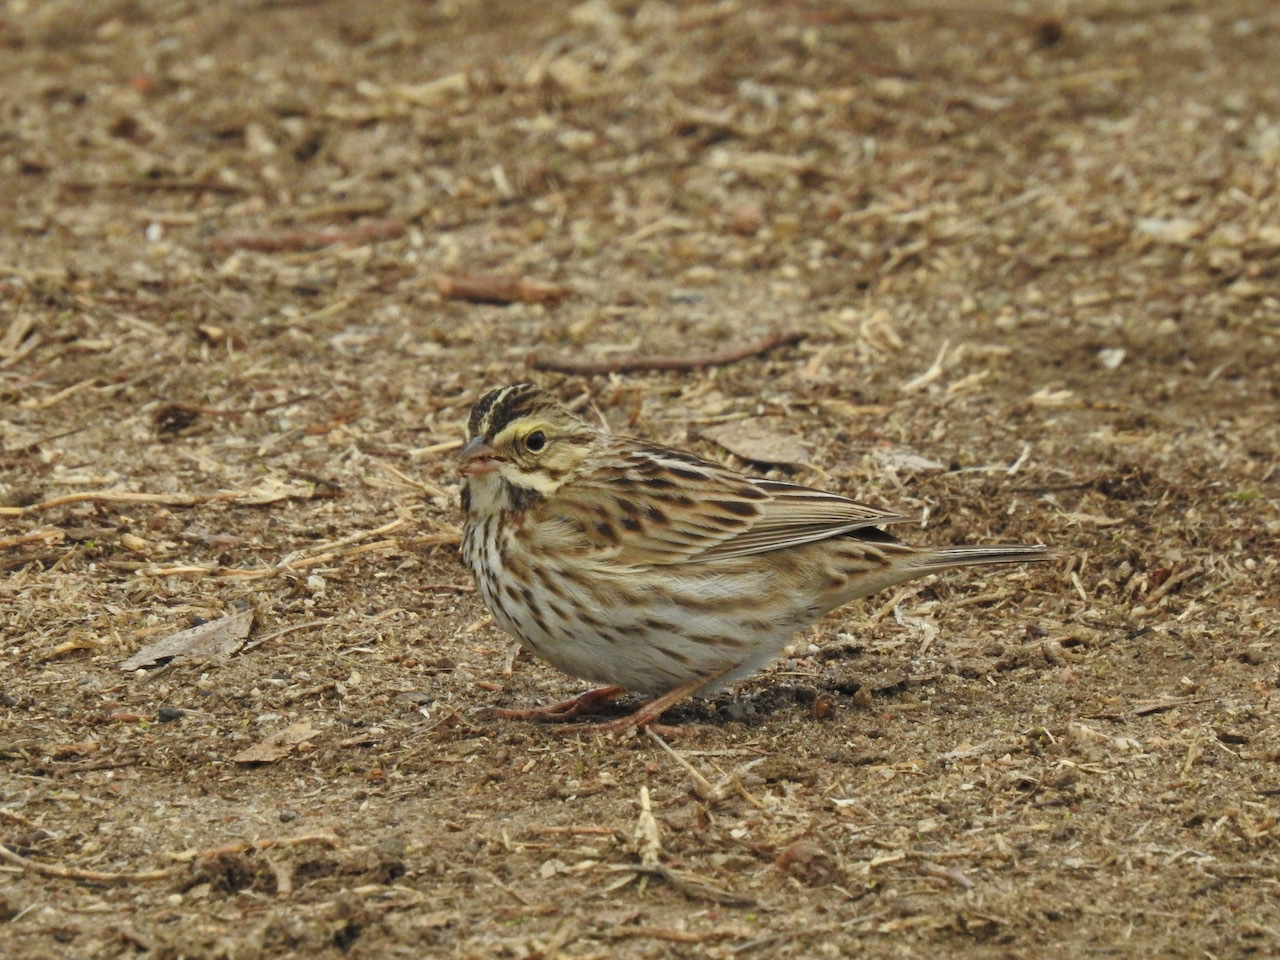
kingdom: Animalia
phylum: Chordata
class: Aves
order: Passeriformes
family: Passerellidae
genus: Passerculus
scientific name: Passerculus sandwichensis
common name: Savannah sparrow
